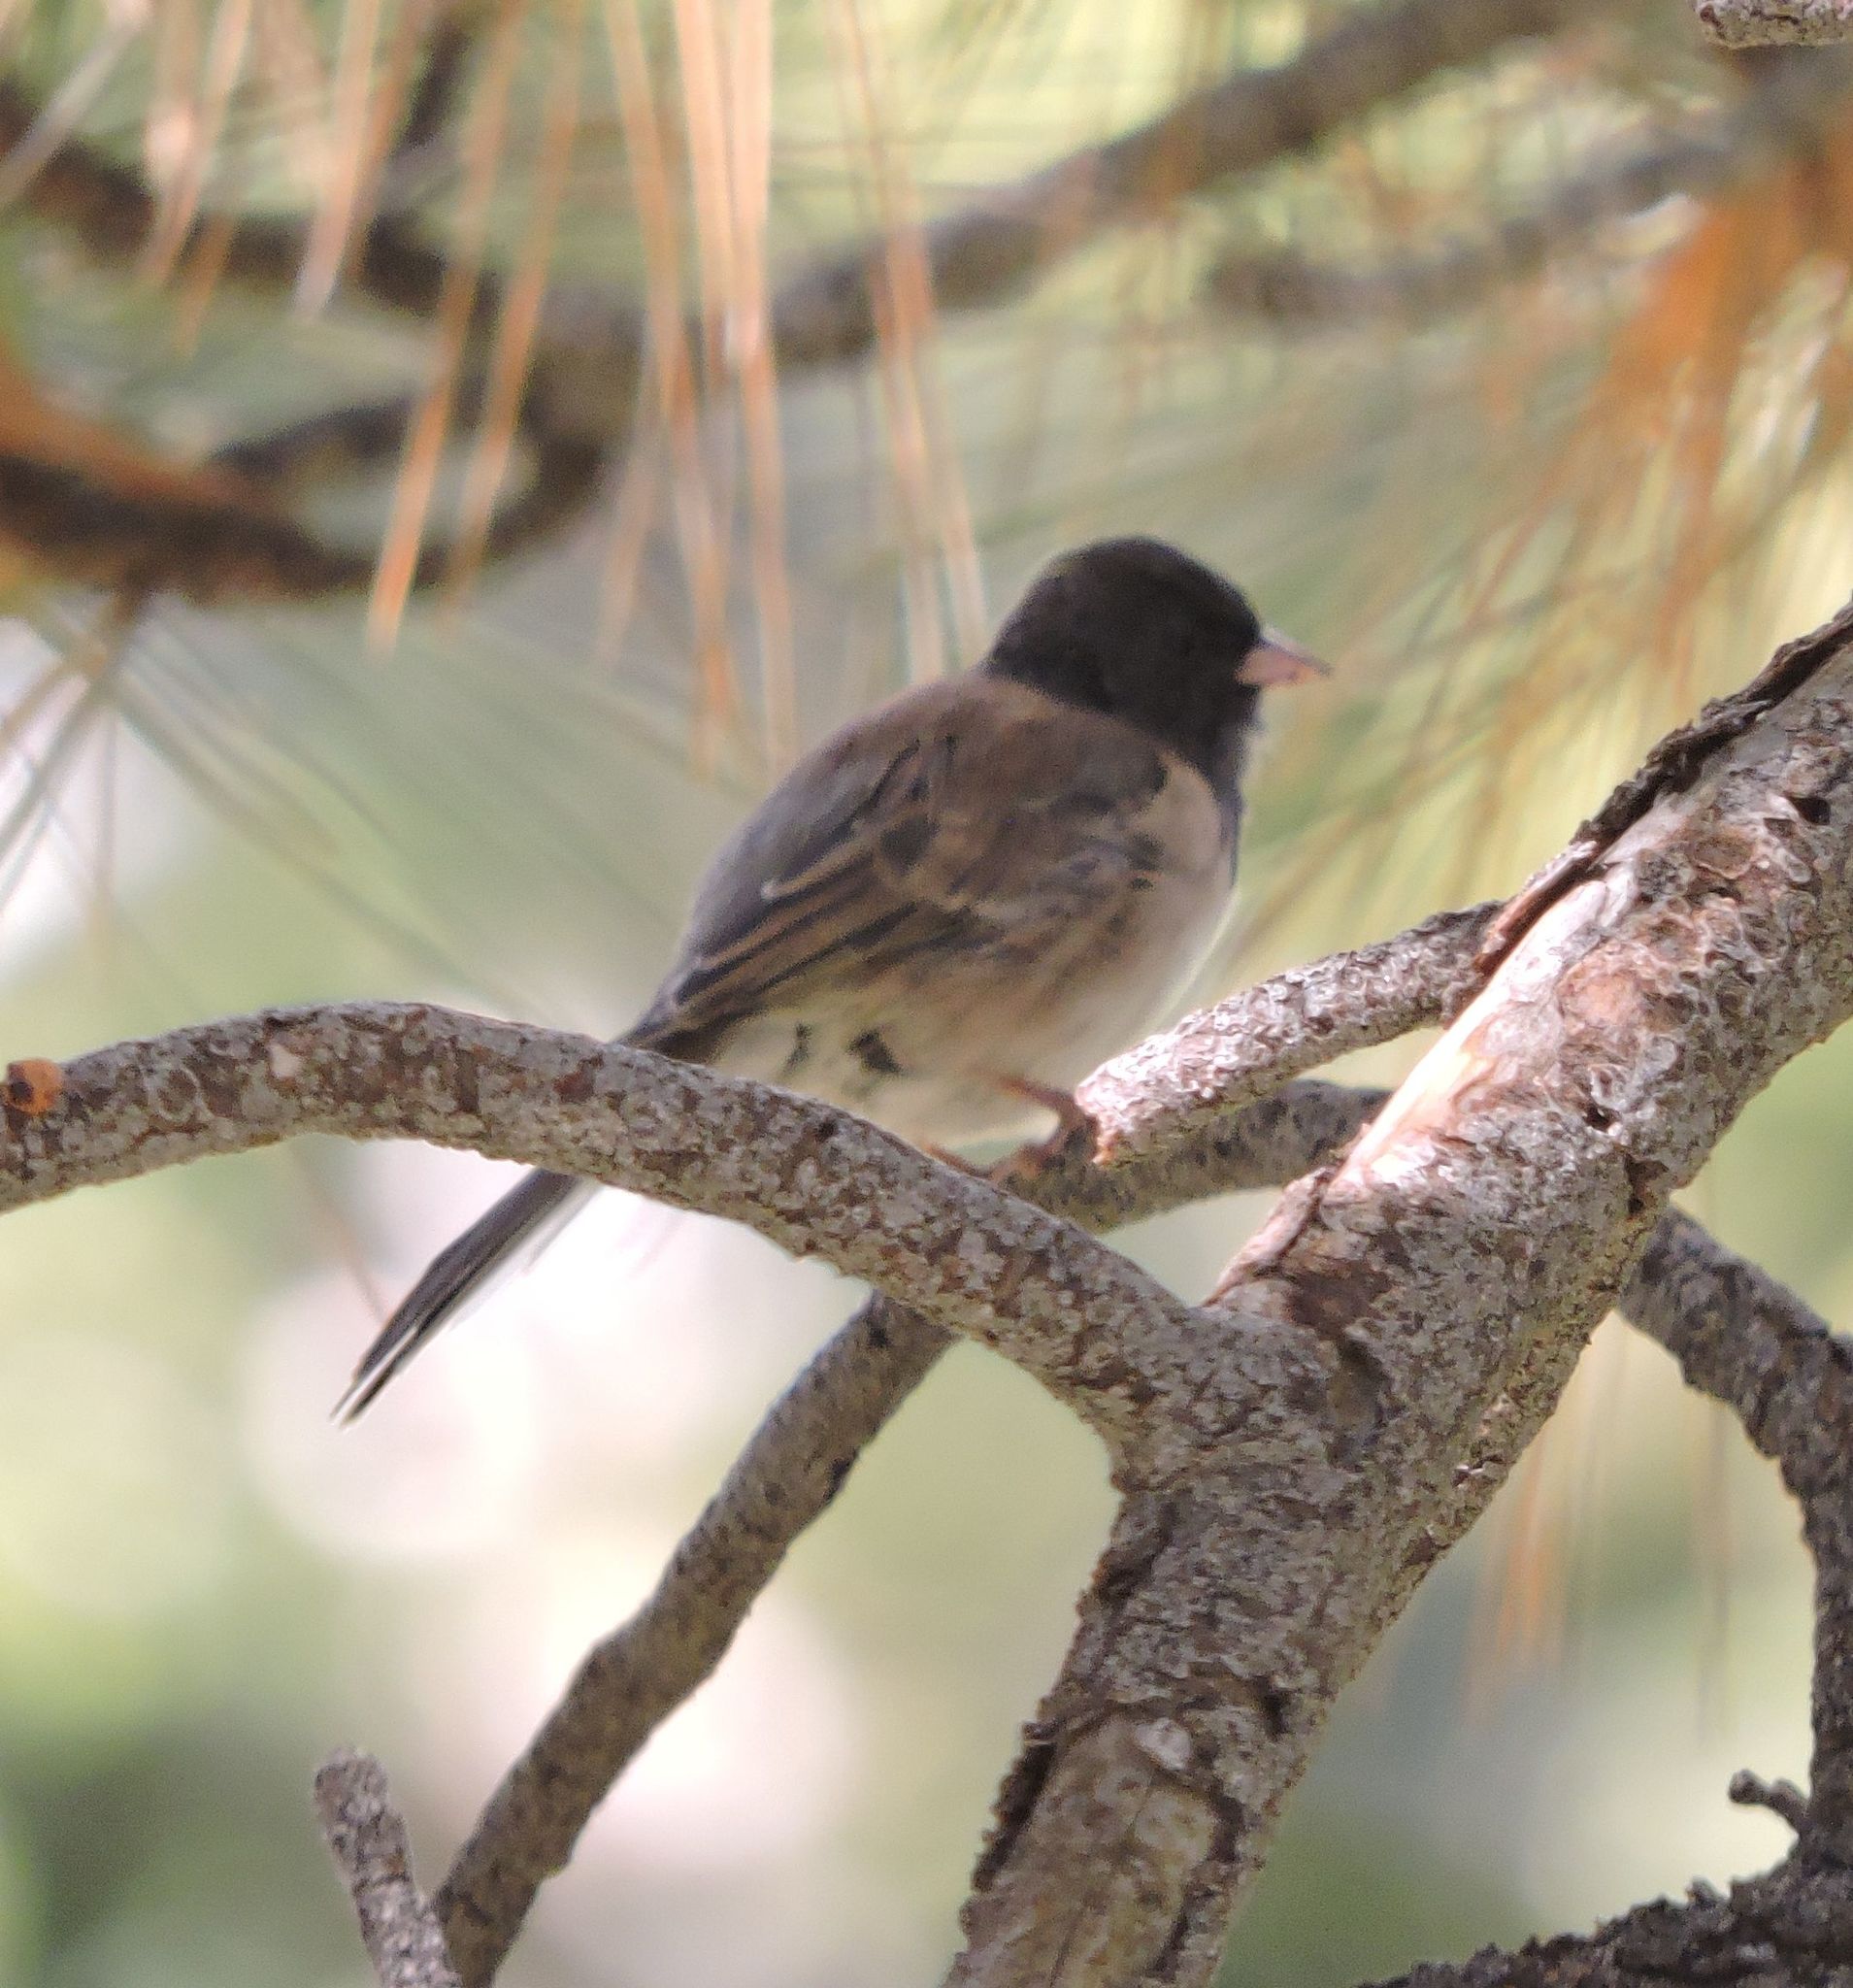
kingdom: Animalia
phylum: Chordata
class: Aves
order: Passeriformes
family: Passerellidae
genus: Junco
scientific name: Junco hyemalis
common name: Dark-eyed junco
